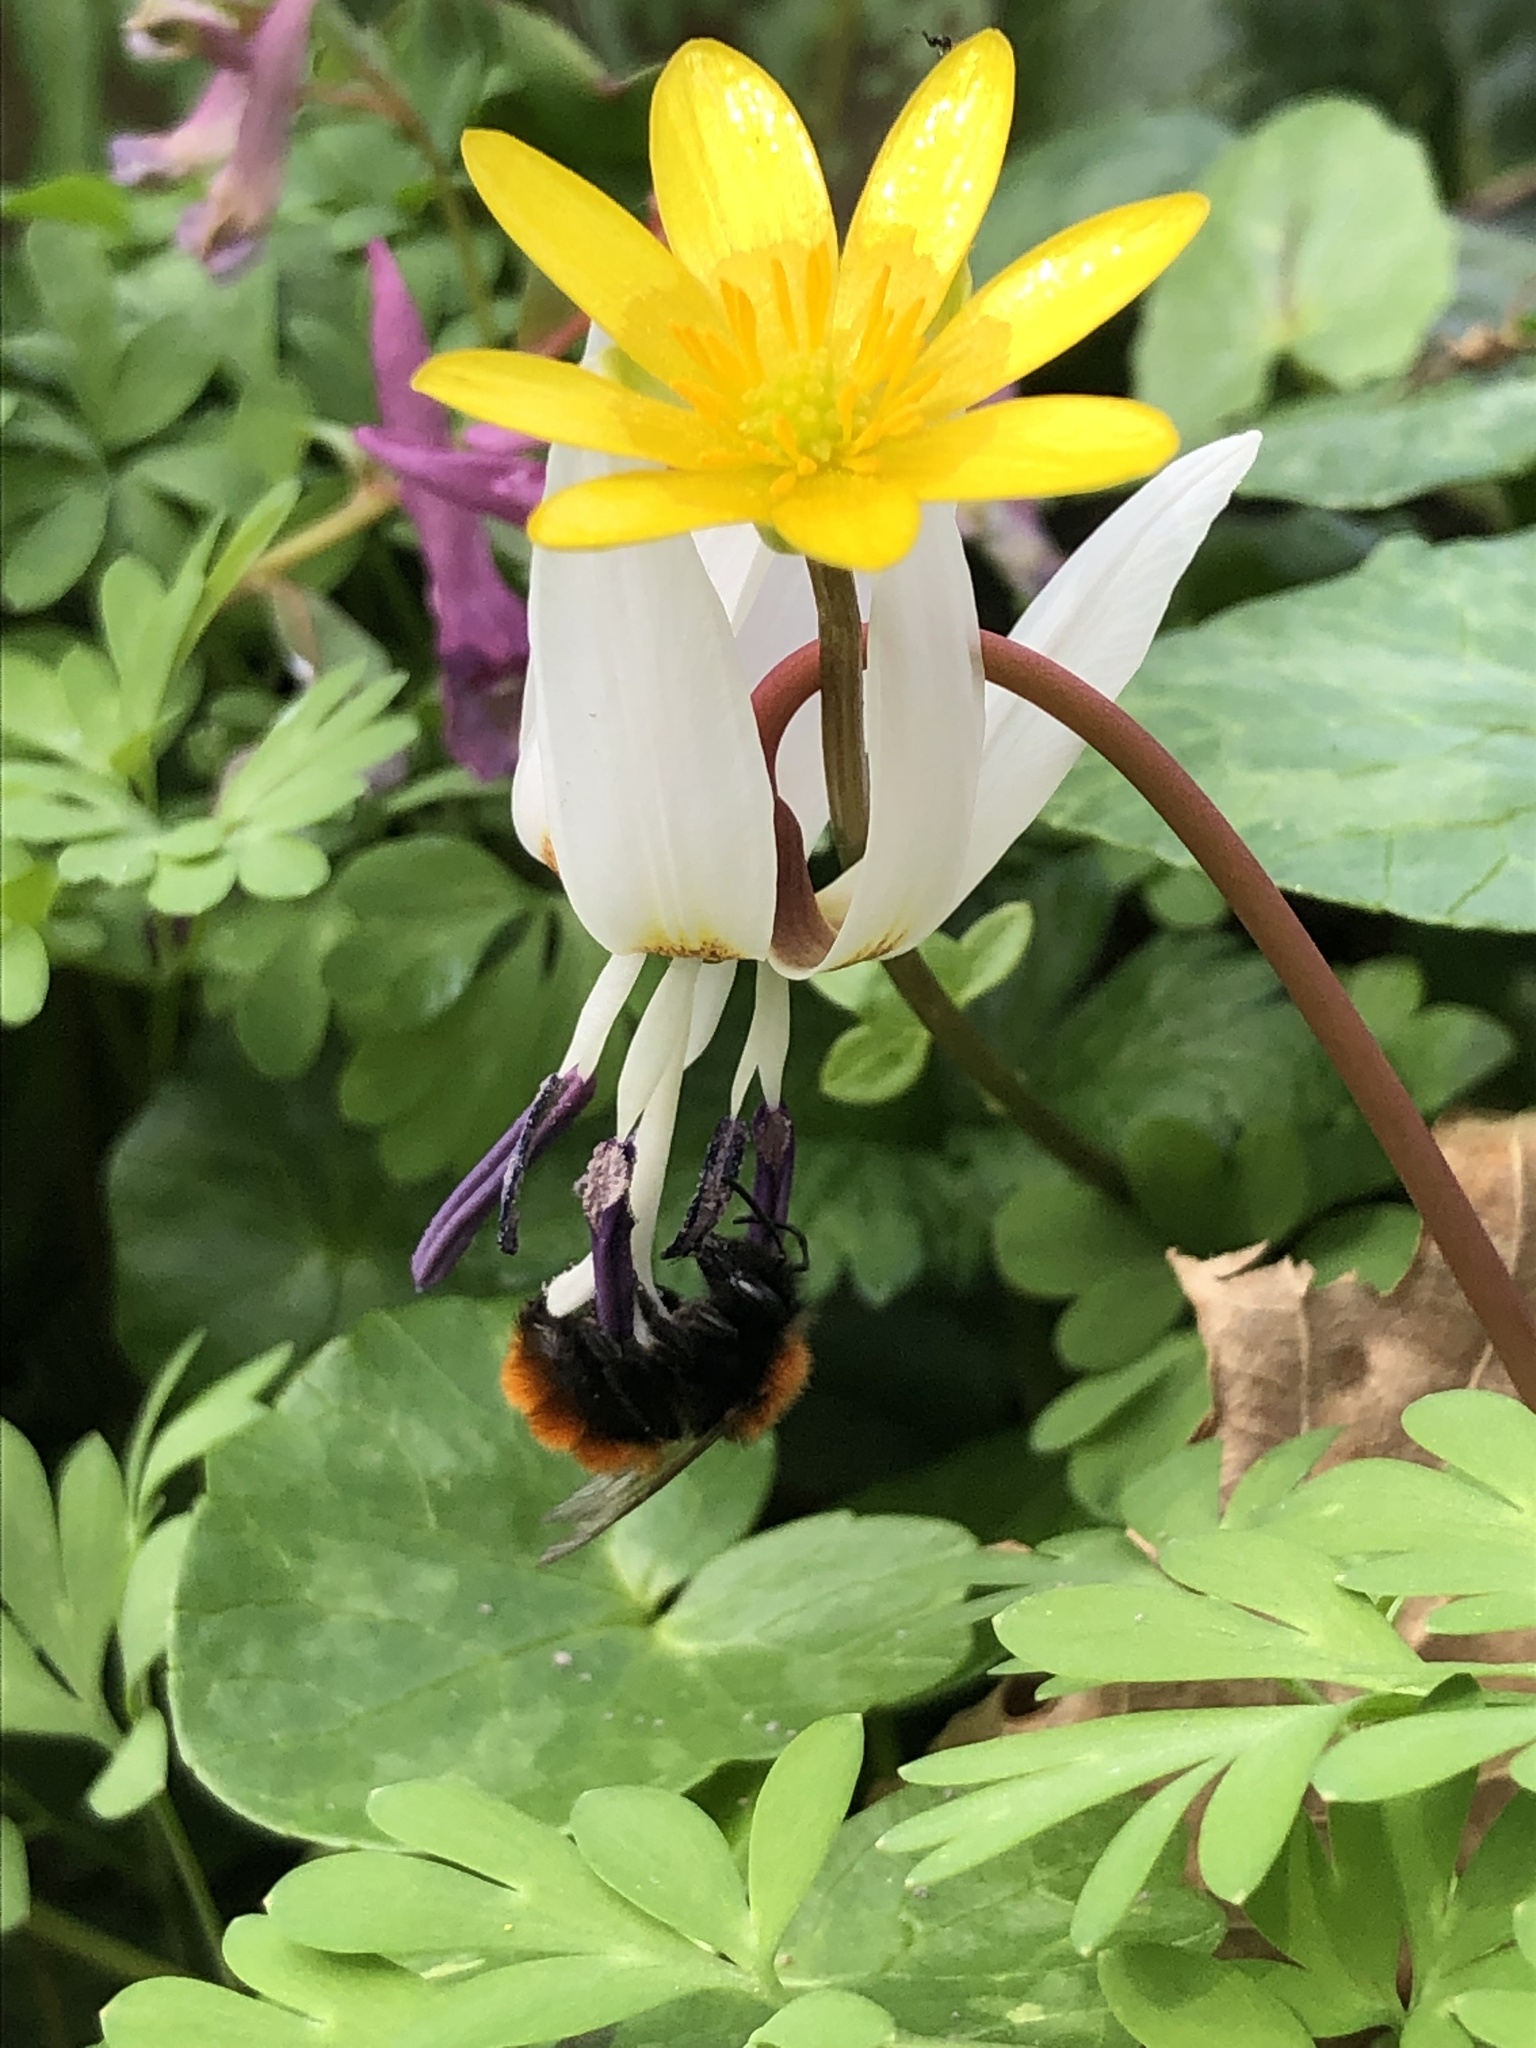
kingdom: Animalia
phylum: Arthropoda
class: Insecta
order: Hymenoptera
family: Andrenidae
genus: Andrena
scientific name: Andrena fulva
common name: Tawny mining bee
